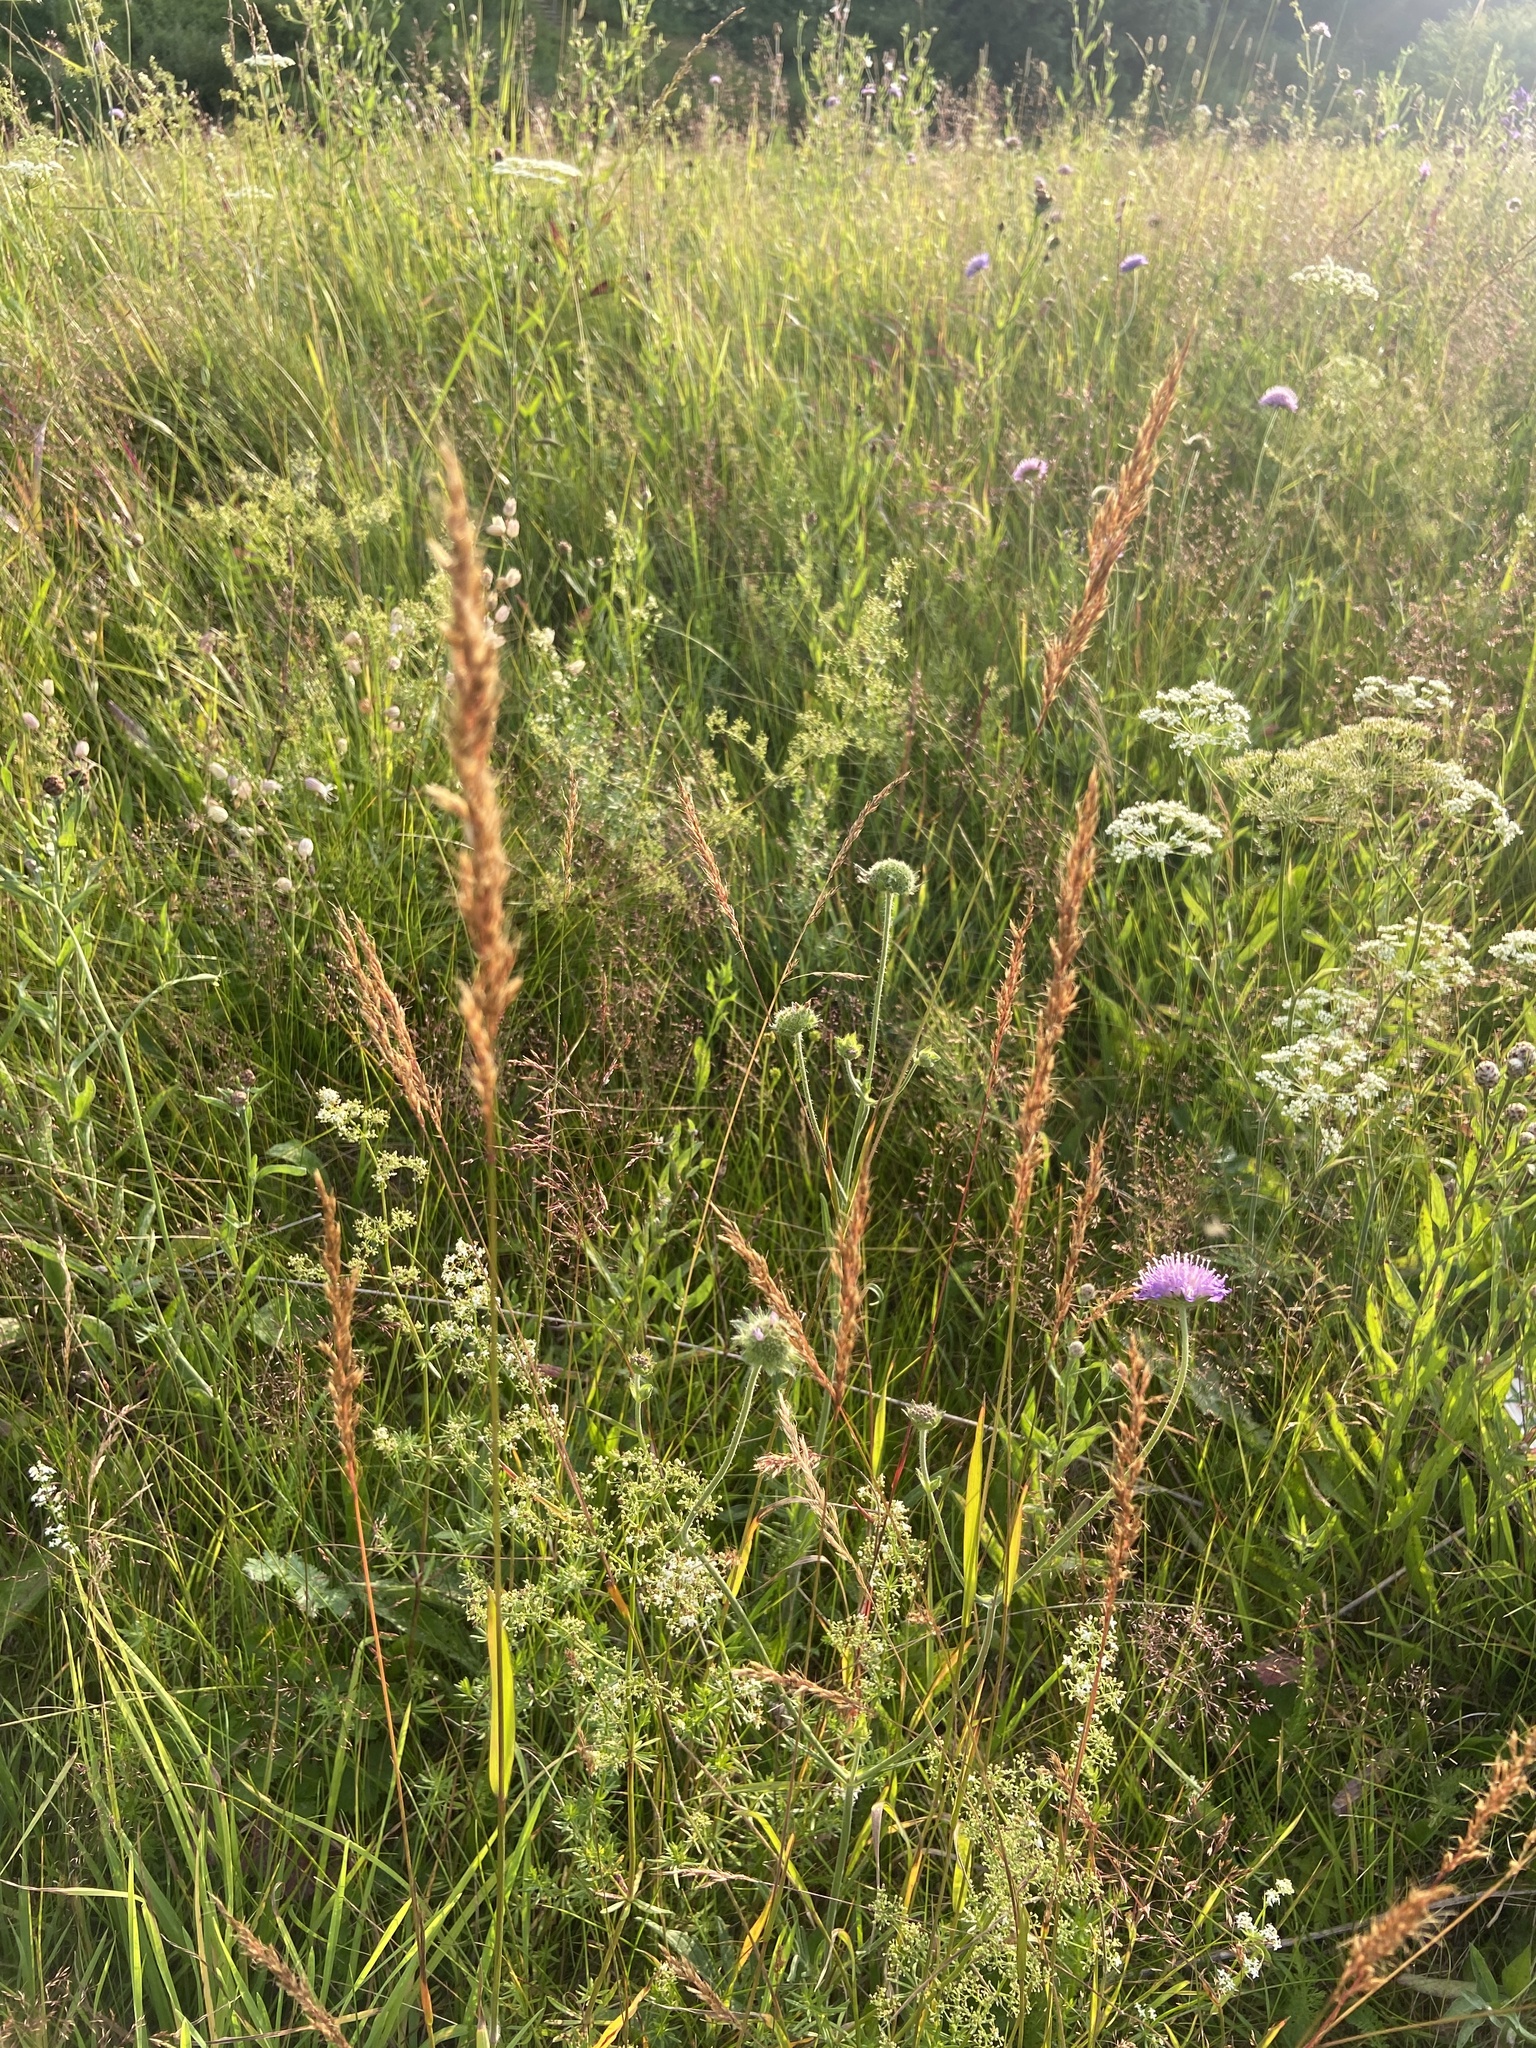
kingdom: Plantae
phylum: Tracheophyta
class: Liliopsida
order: Poales
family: Poaceae
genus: Trisetum
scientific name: Trisetum flavescens
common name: Yellow oat-grass
